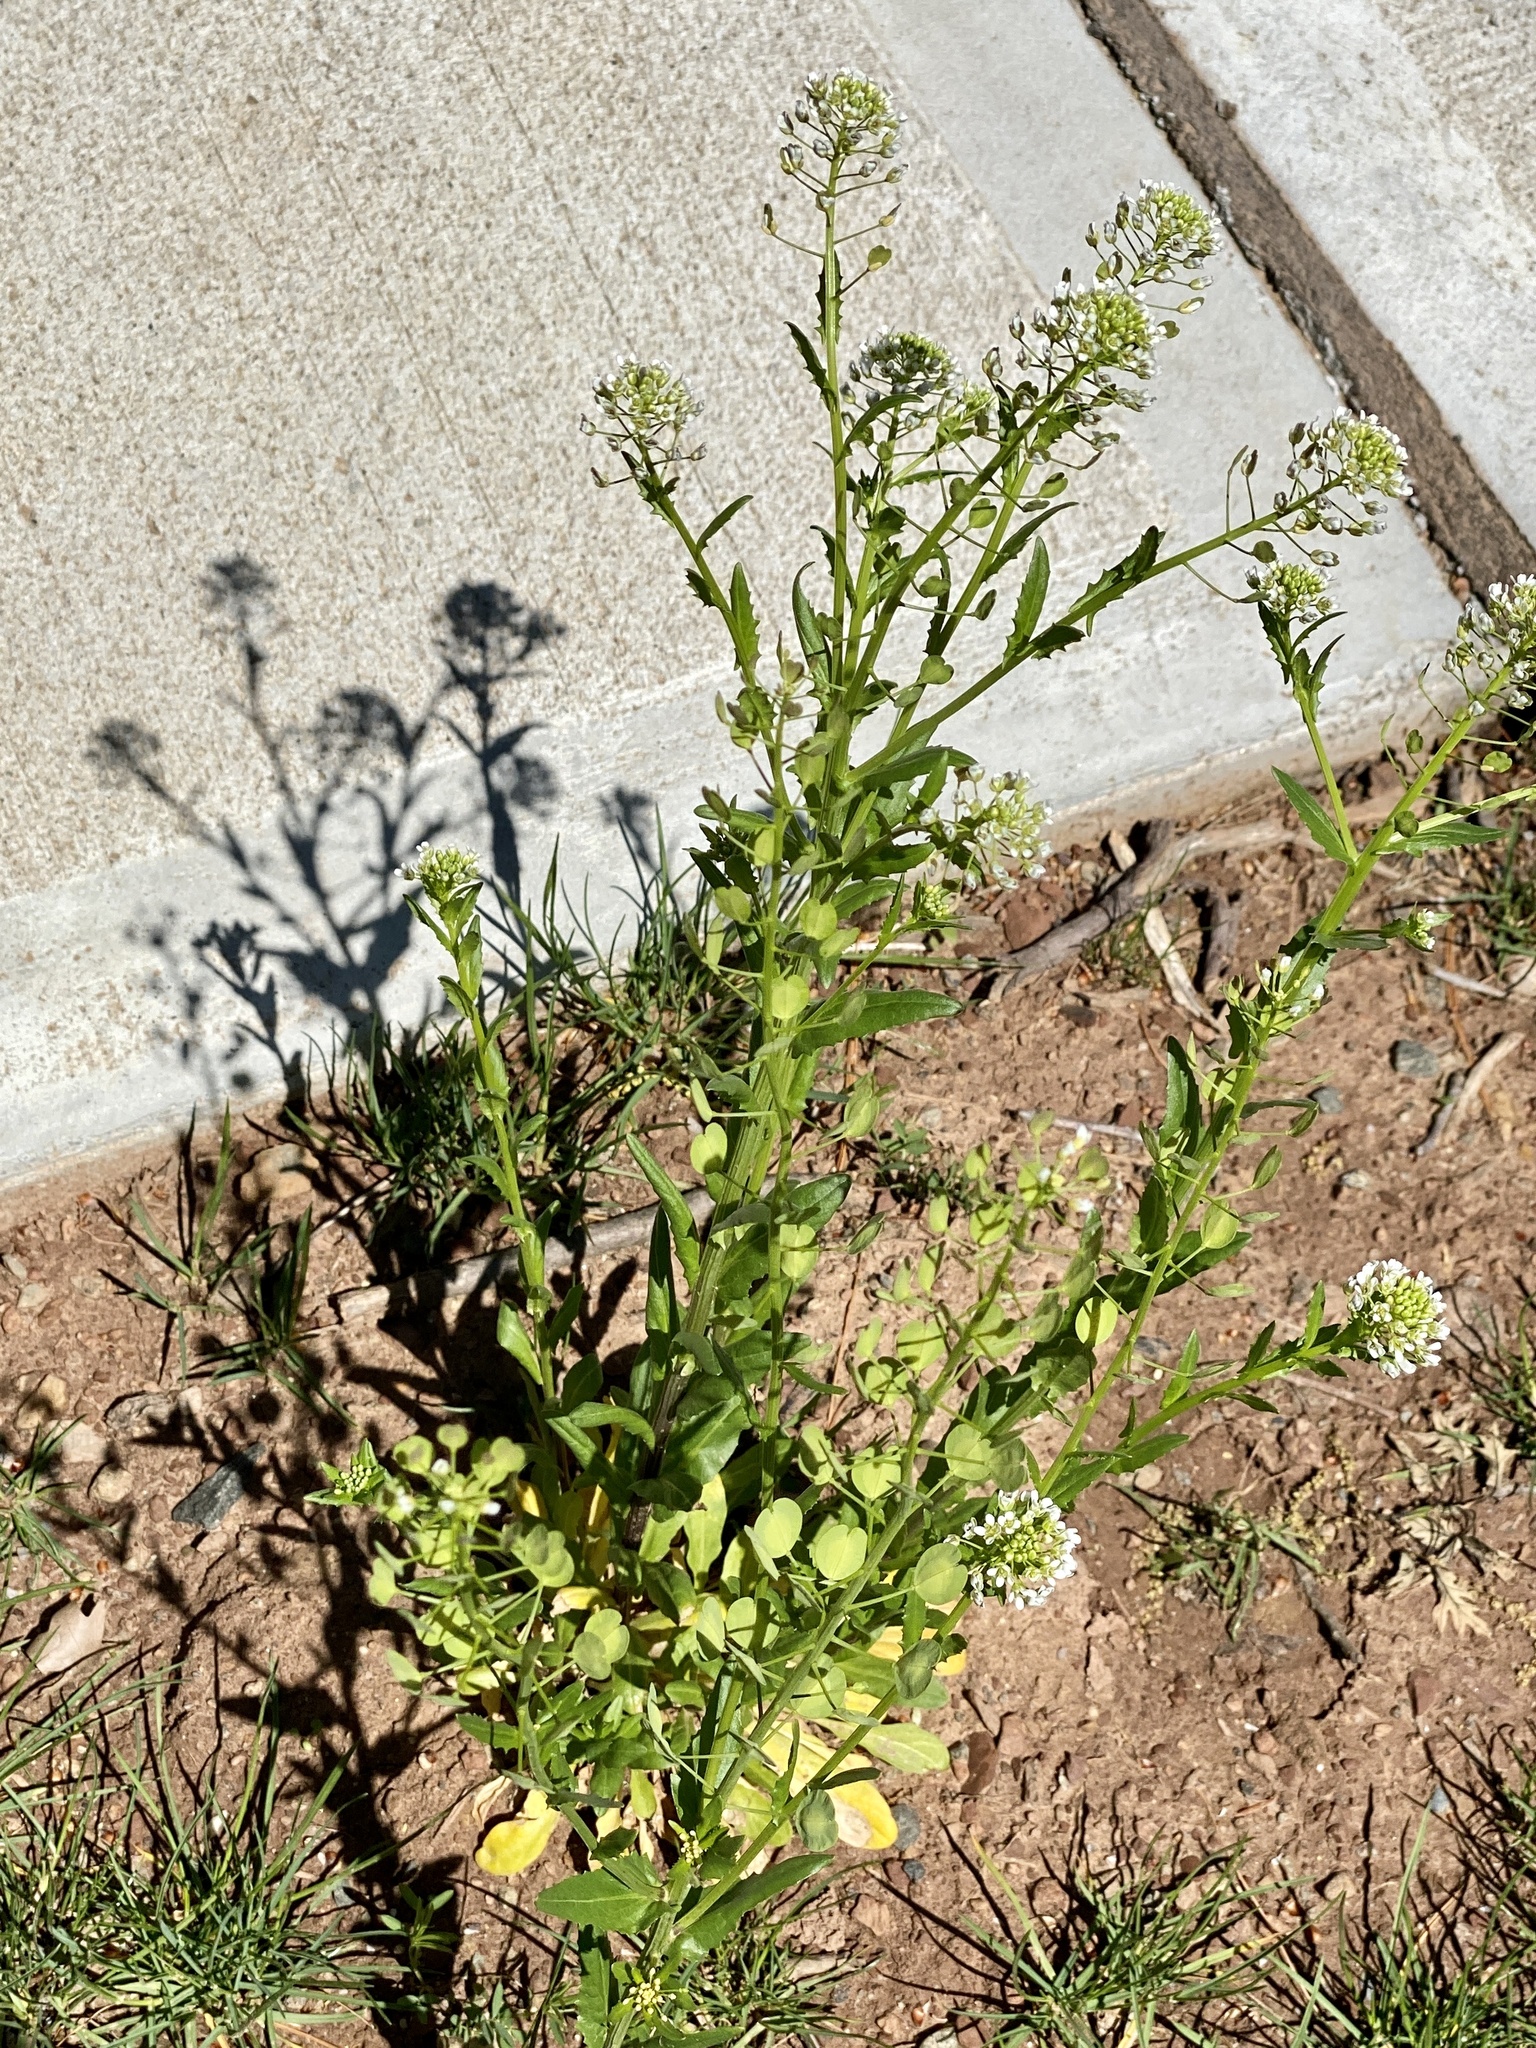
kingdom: Plantae
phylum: Tracheophyta
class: Magnoliopsida
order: Brassicales
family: Brassicaceae
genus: Thlaspi
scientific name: Thlaspi arvense
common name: Field pennycress
